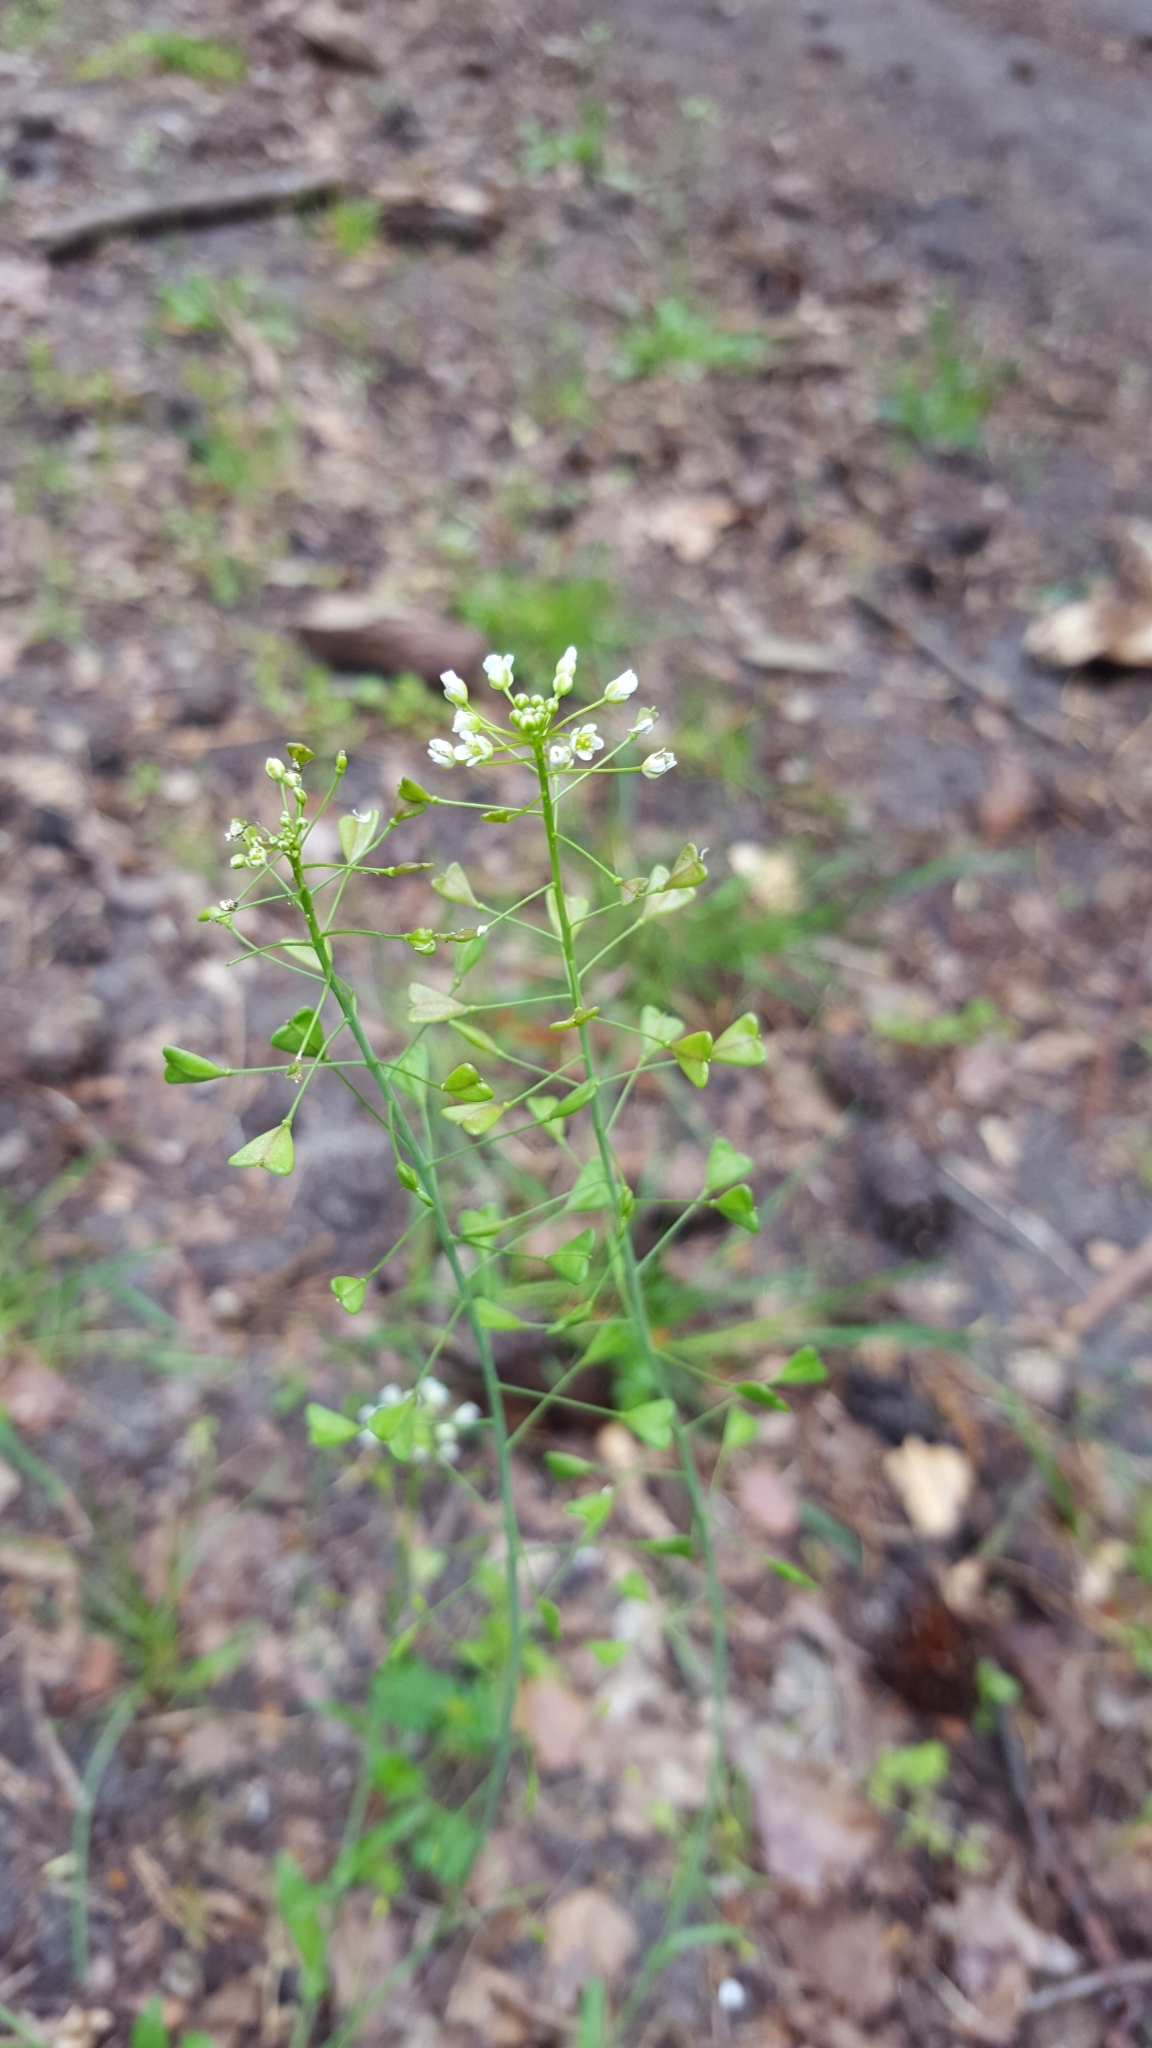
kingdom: Plantae
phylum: Tracheophyta
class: Magnoliopsida
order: Brassicales
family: Brassicaceae
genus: Capsella
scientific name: Capsella bursa-pastoris
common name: Shepherd's purse
